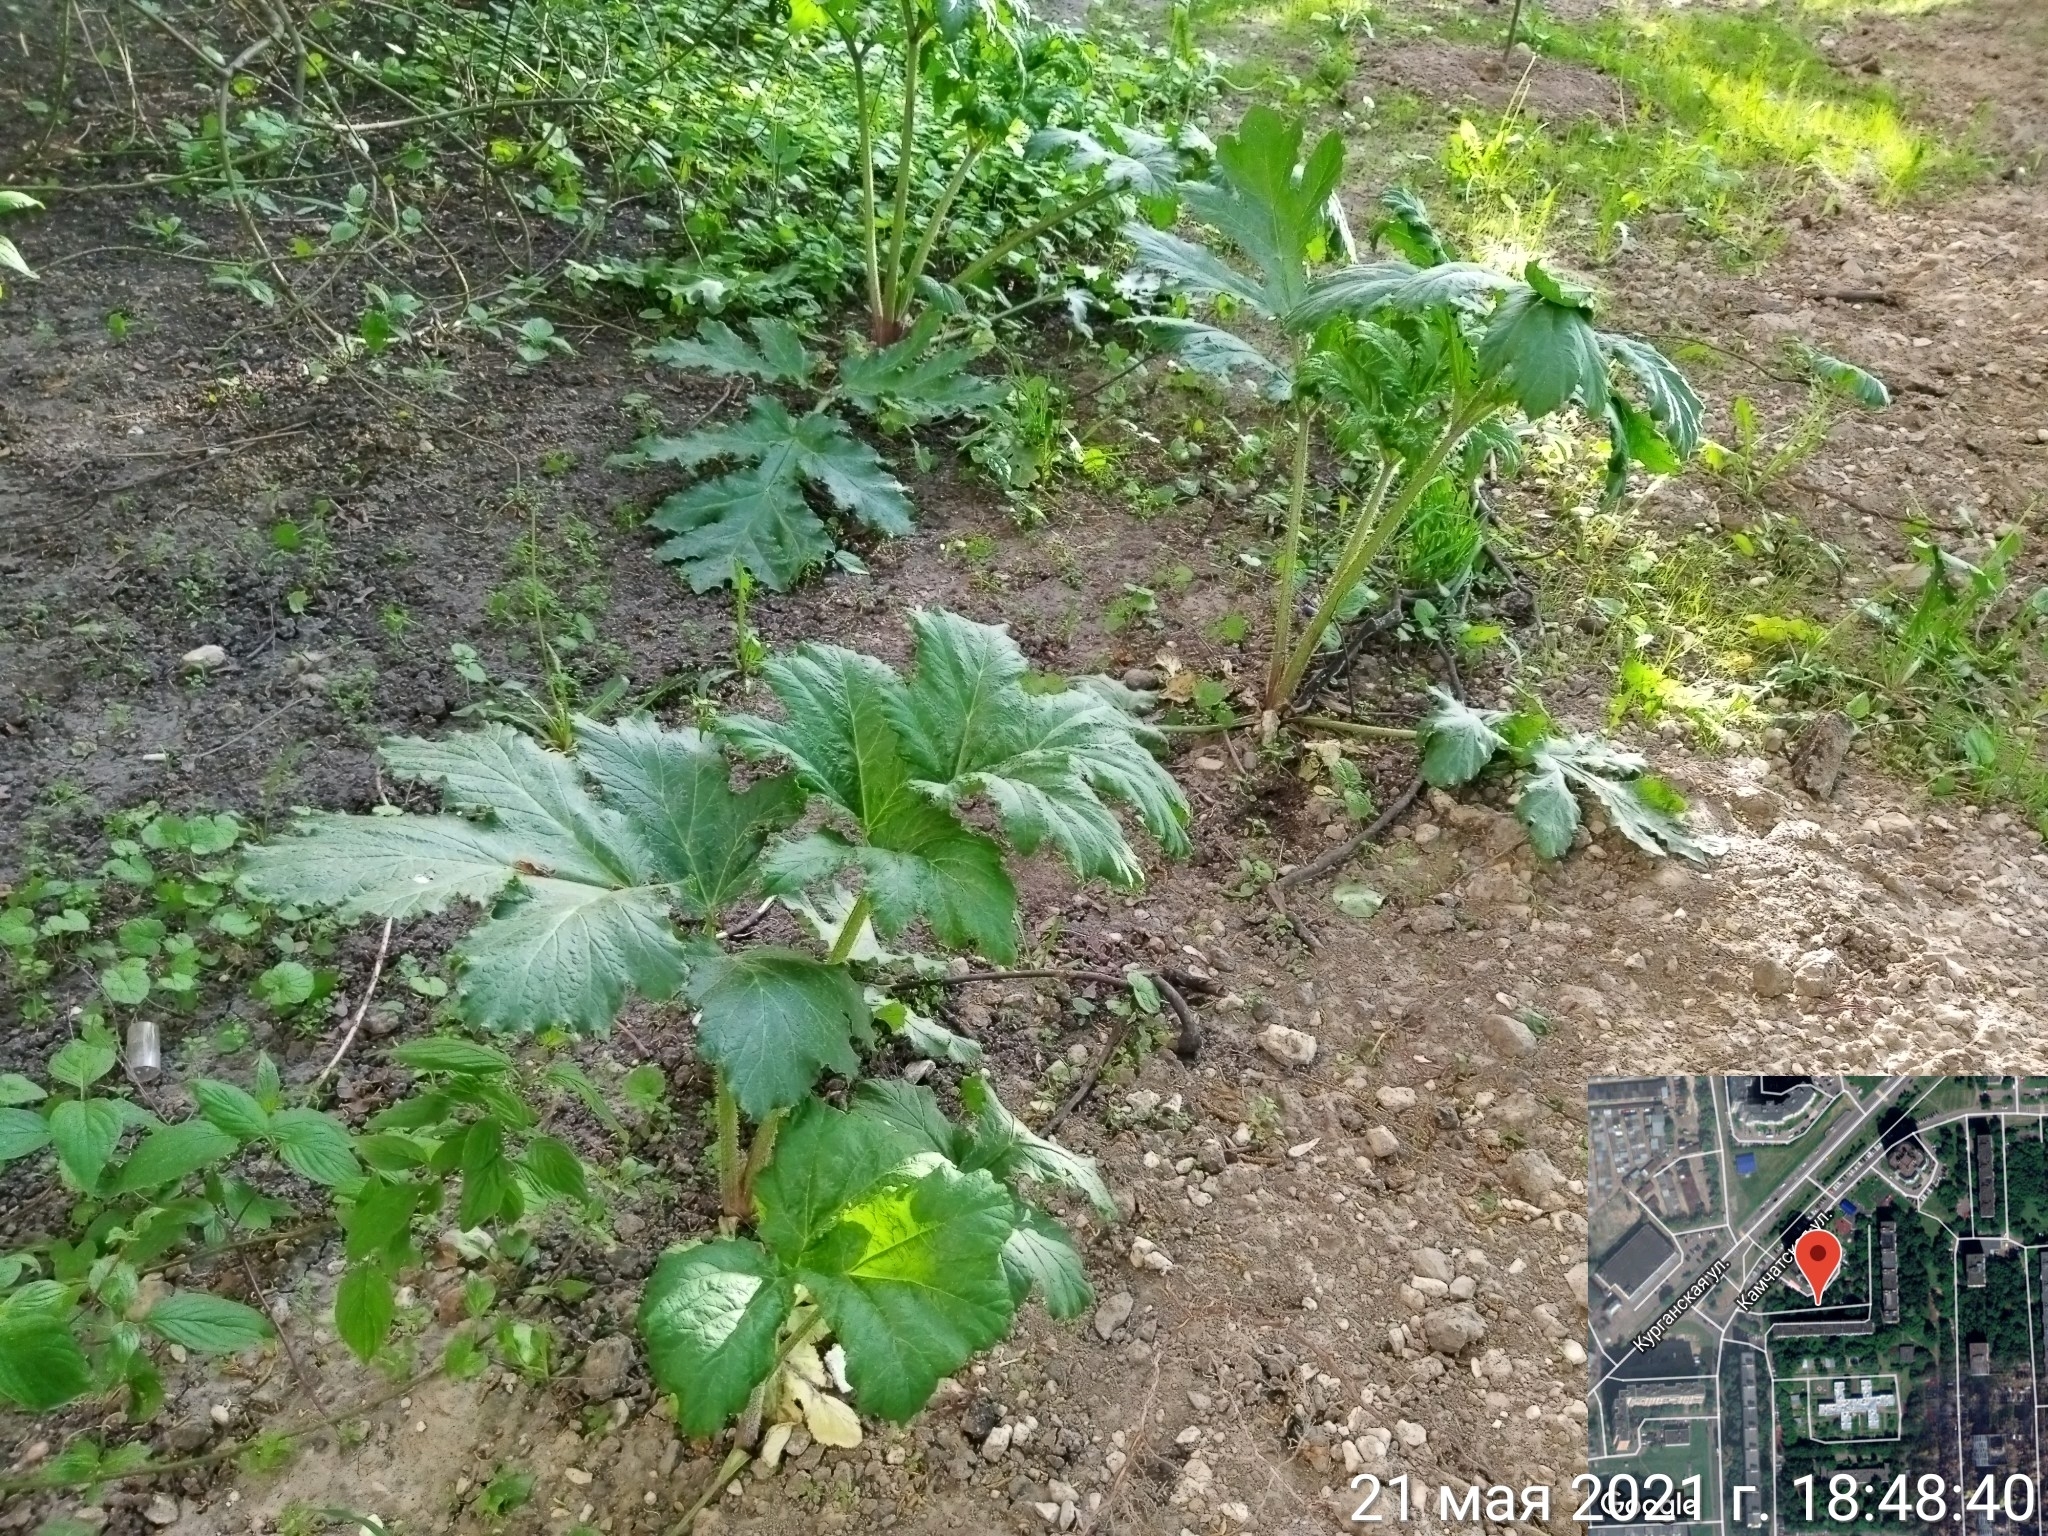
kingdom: Plantae
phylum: Tracheophyta
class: Magnoliopsida
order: Apiales
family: Apiaceae
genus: Heracleum
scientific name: Heracleum sosnowskyi
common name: Sosnowsky's hogweed
